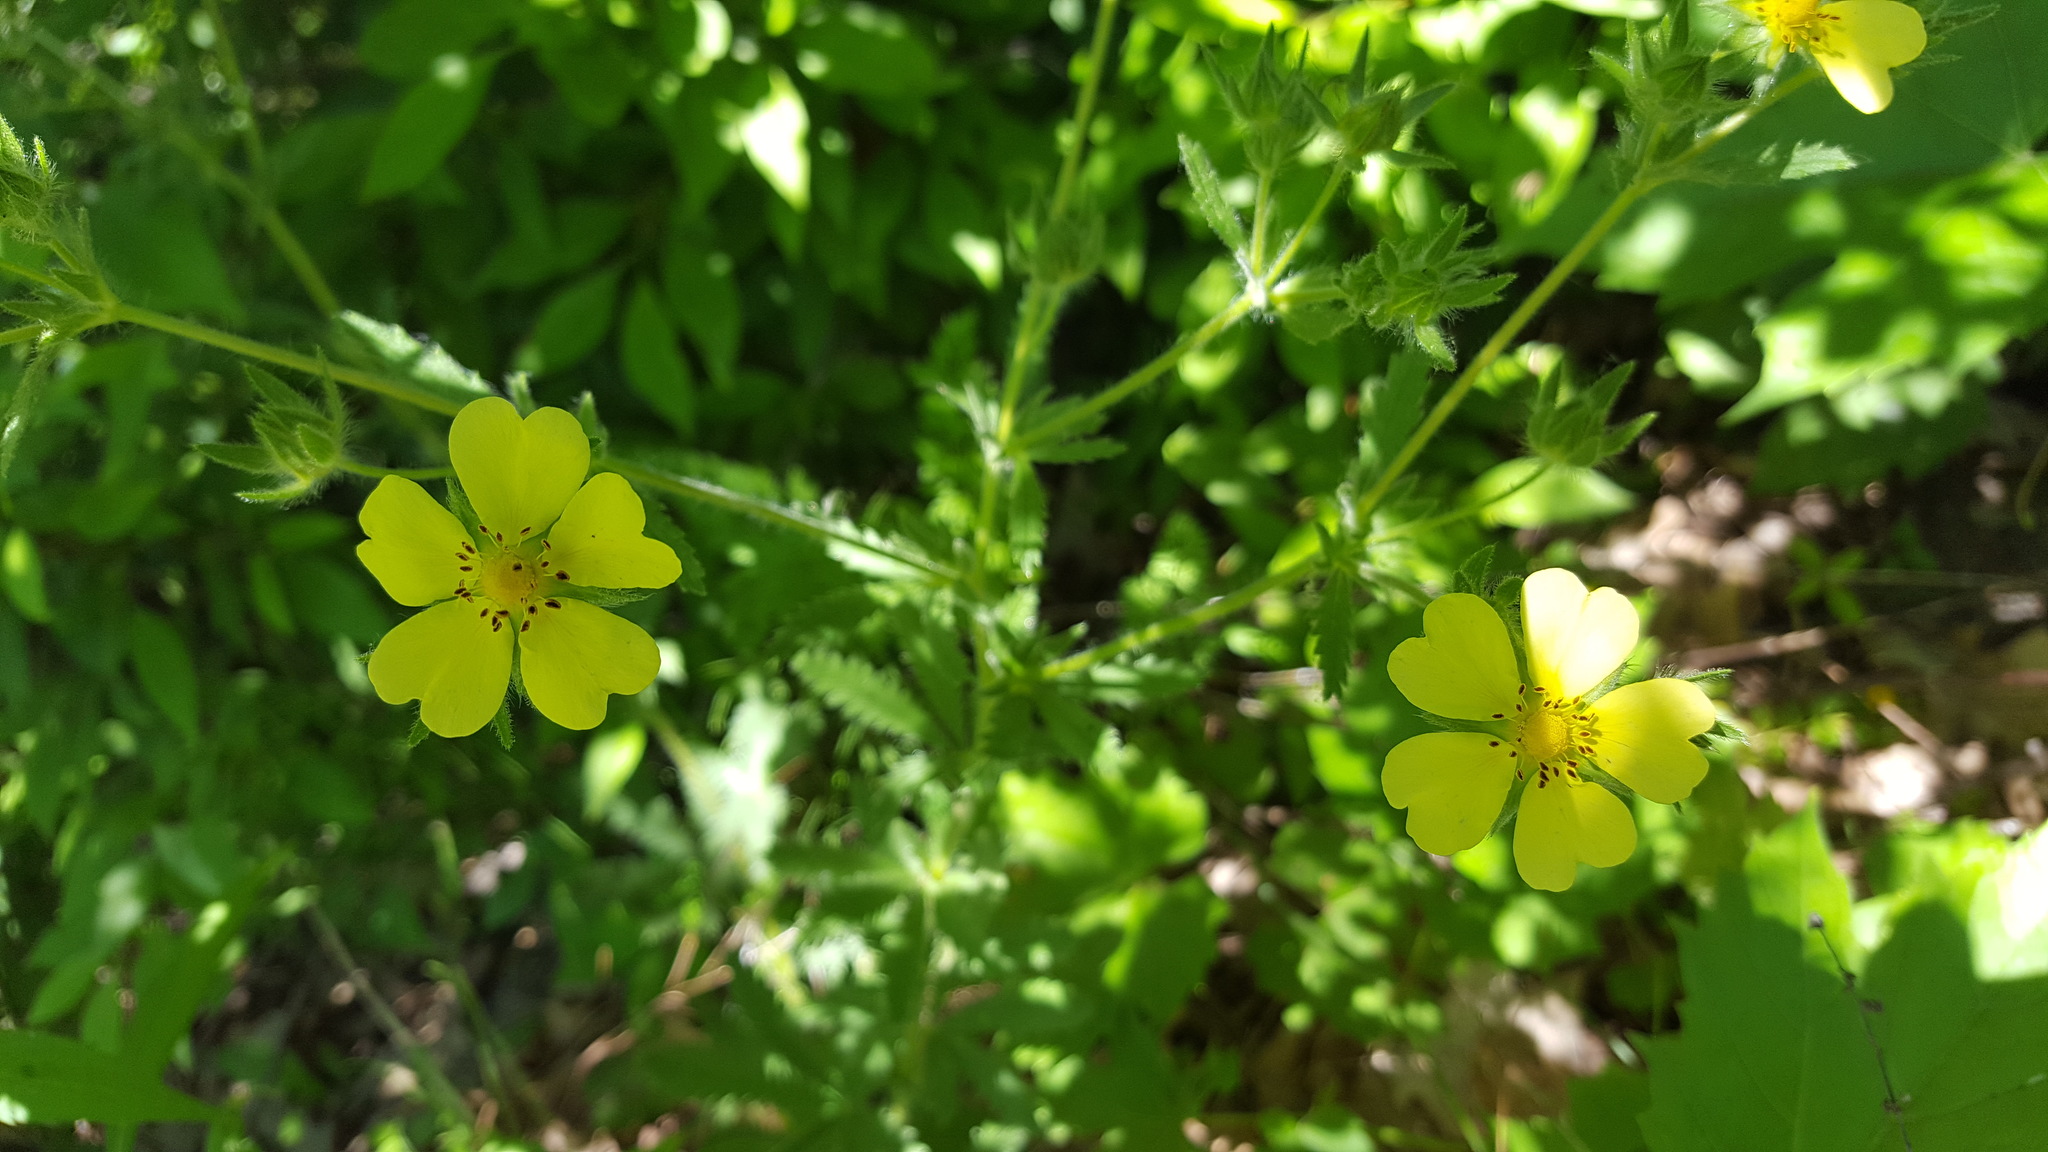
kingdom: Plantae
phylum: Tracheophyta
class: Magnoliopsida
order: Rosales
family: Rosaceae
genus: Potentilla
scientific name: Potentilla recta
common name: Sulphur cinquefoil
